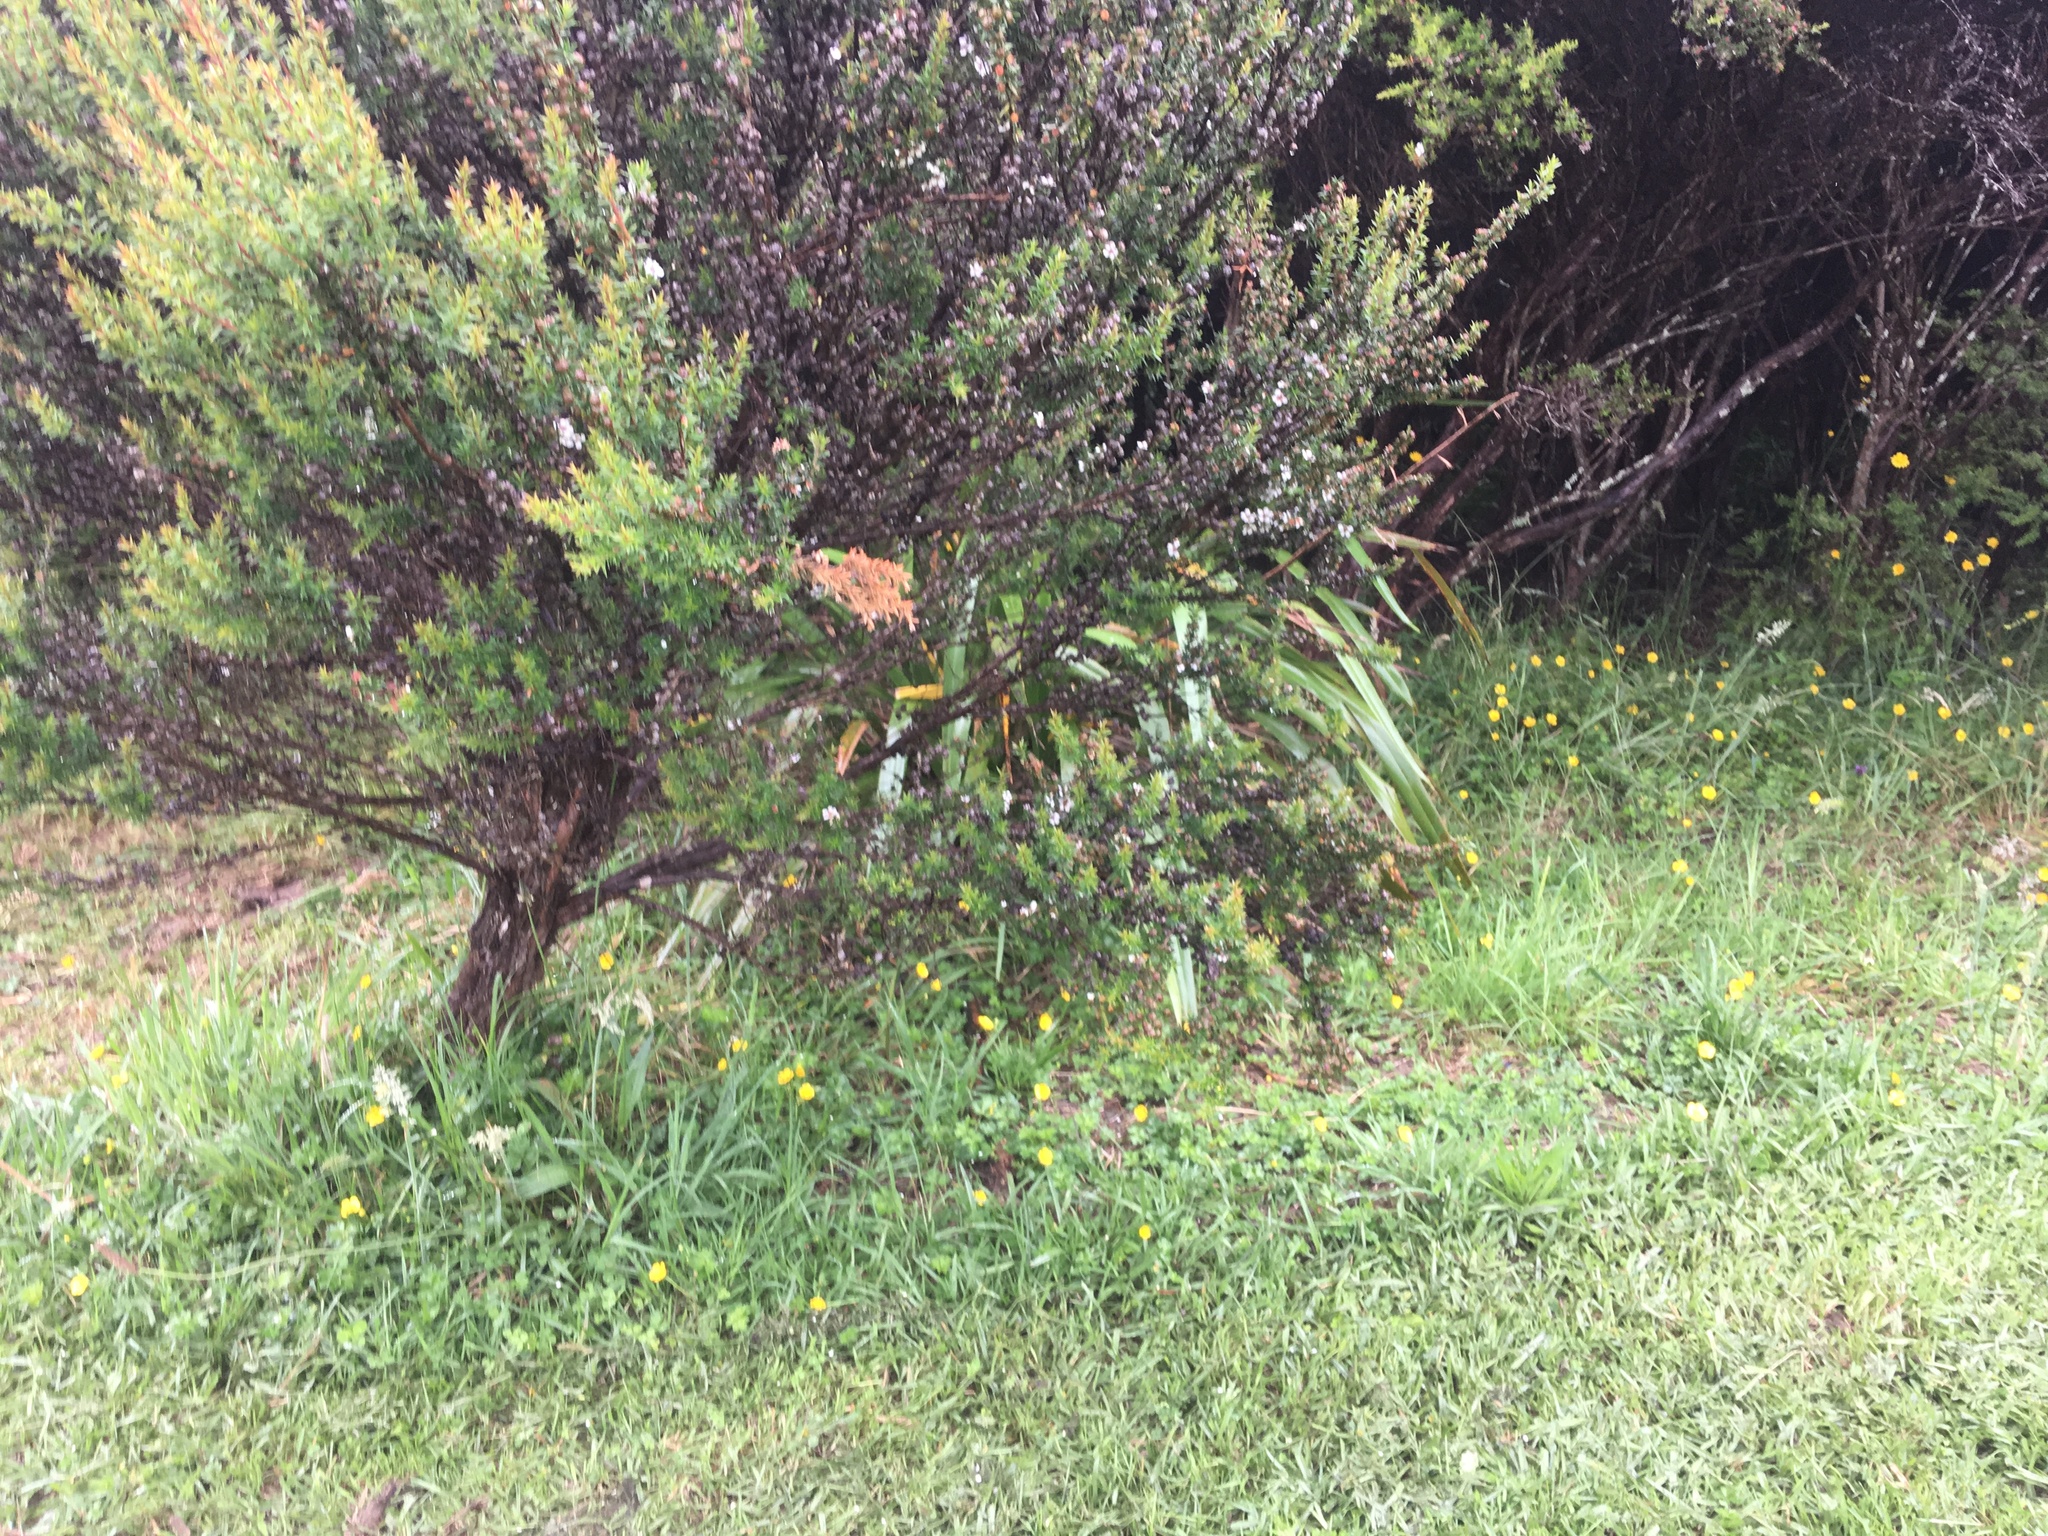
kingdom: Plantae
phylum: Tracheophyta
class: Magnoliopsida
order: Myrtales
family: Myrtaceae
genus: Leptospermum
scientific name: Leptospermum scoparium
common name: Broom tea-tree
